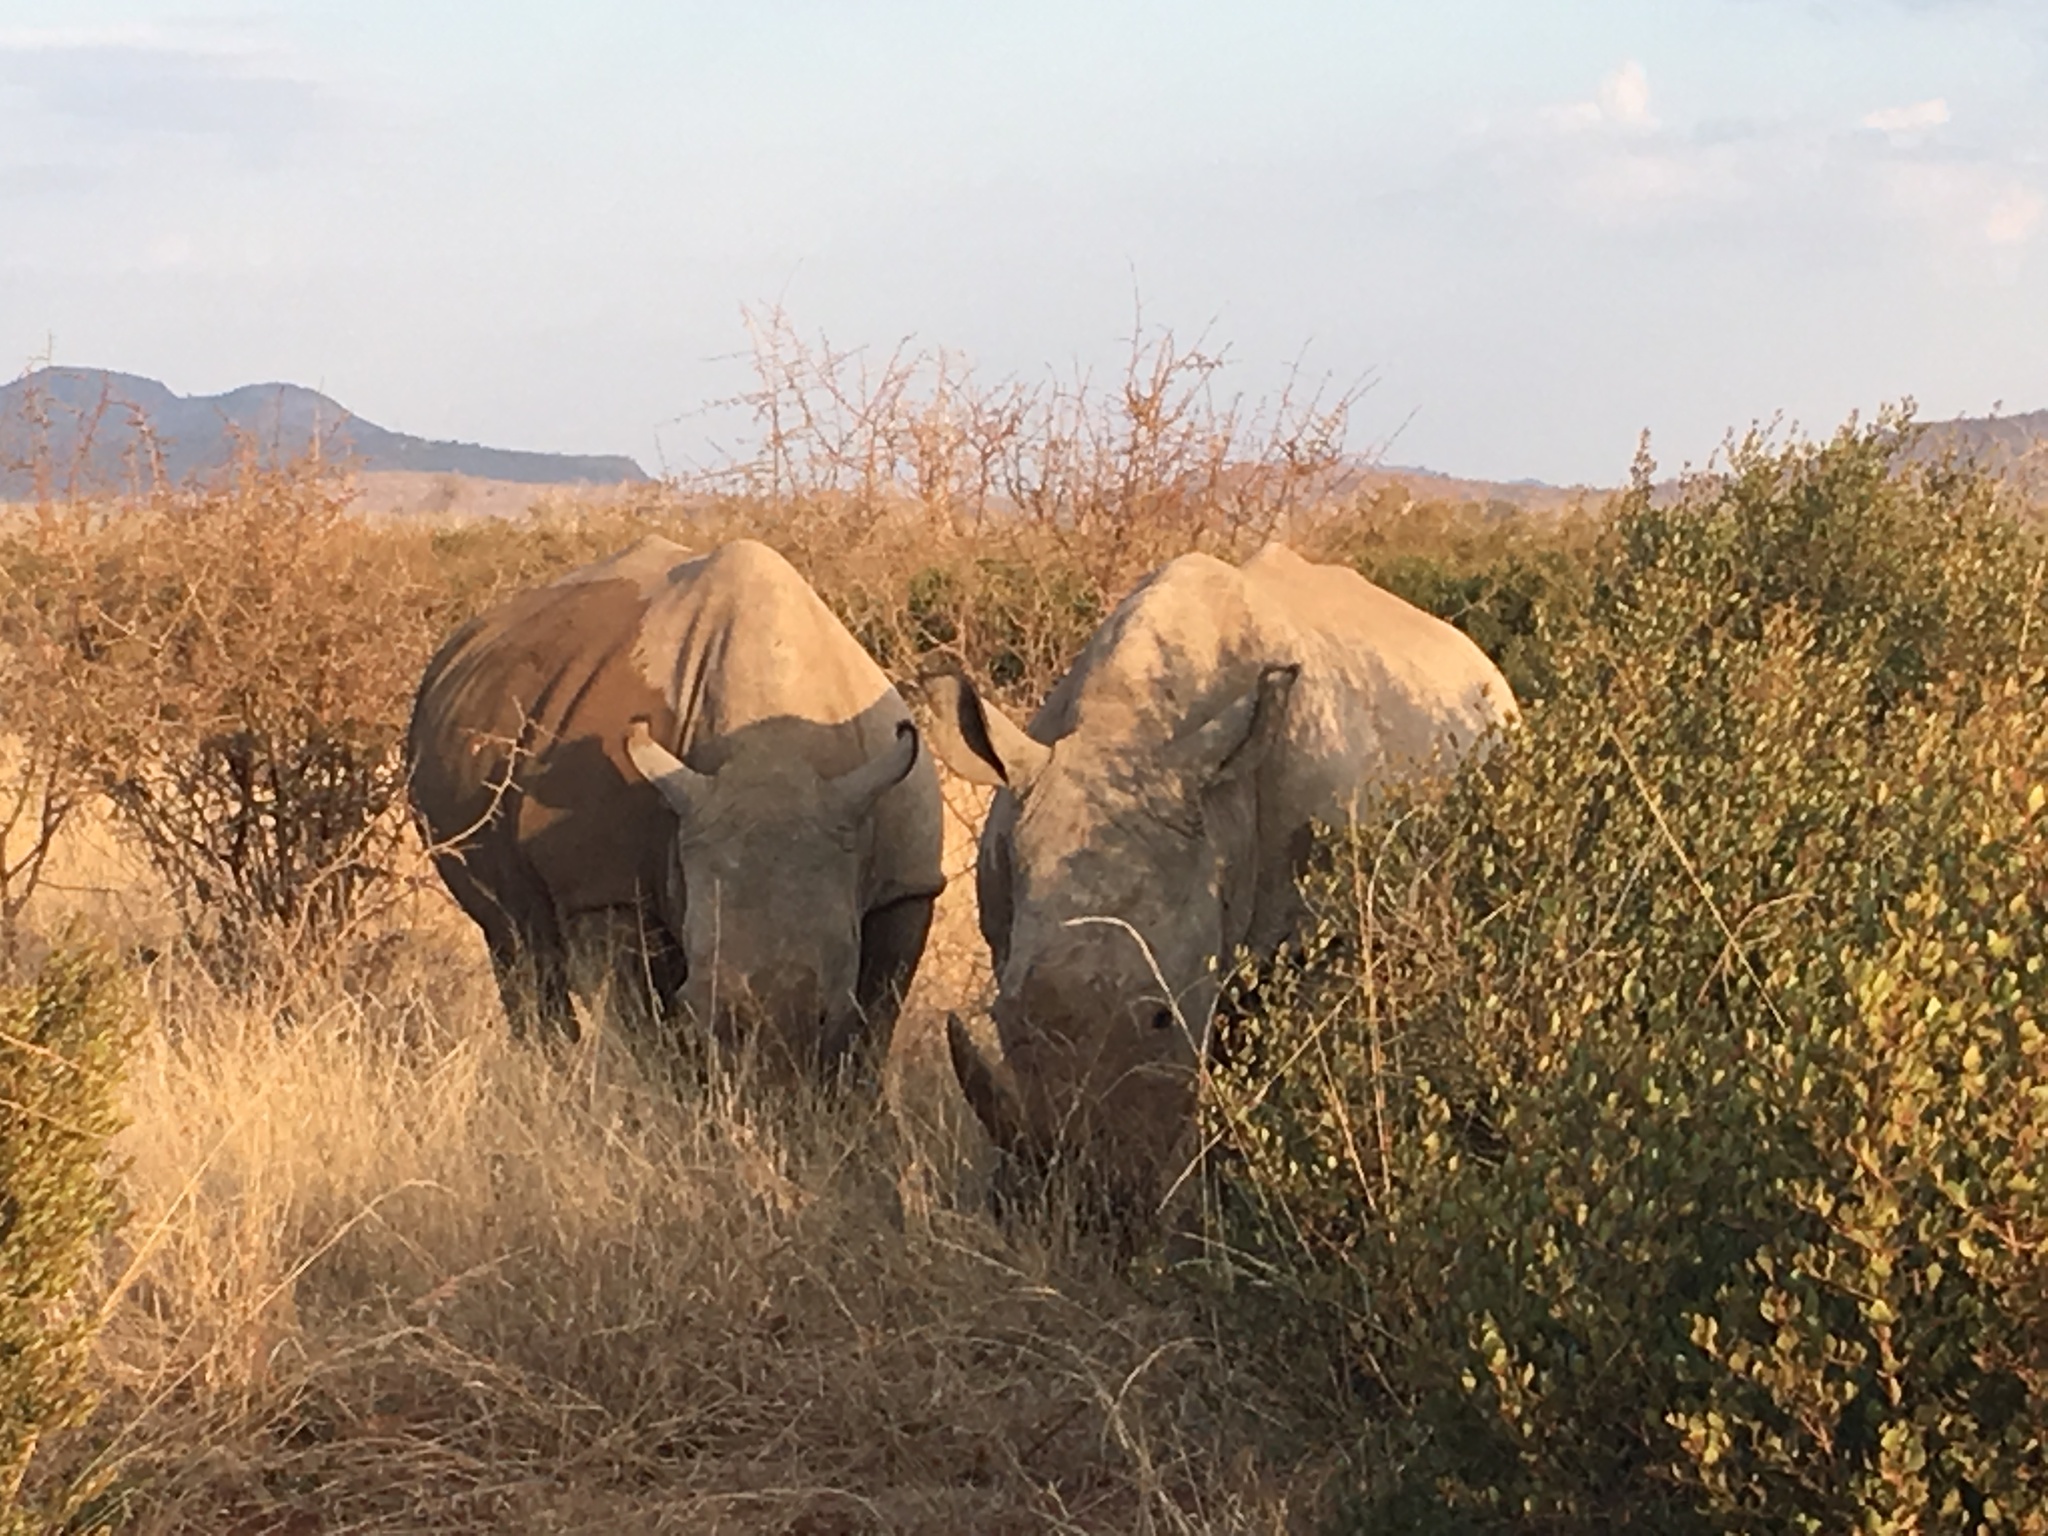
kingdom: Animalia
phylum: Chordata
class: Mammalia
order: Perissodactyla
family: Rhinocerotidae
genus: Ceratotherium
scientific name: Ceratotherium simum
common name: White rhinoceros
